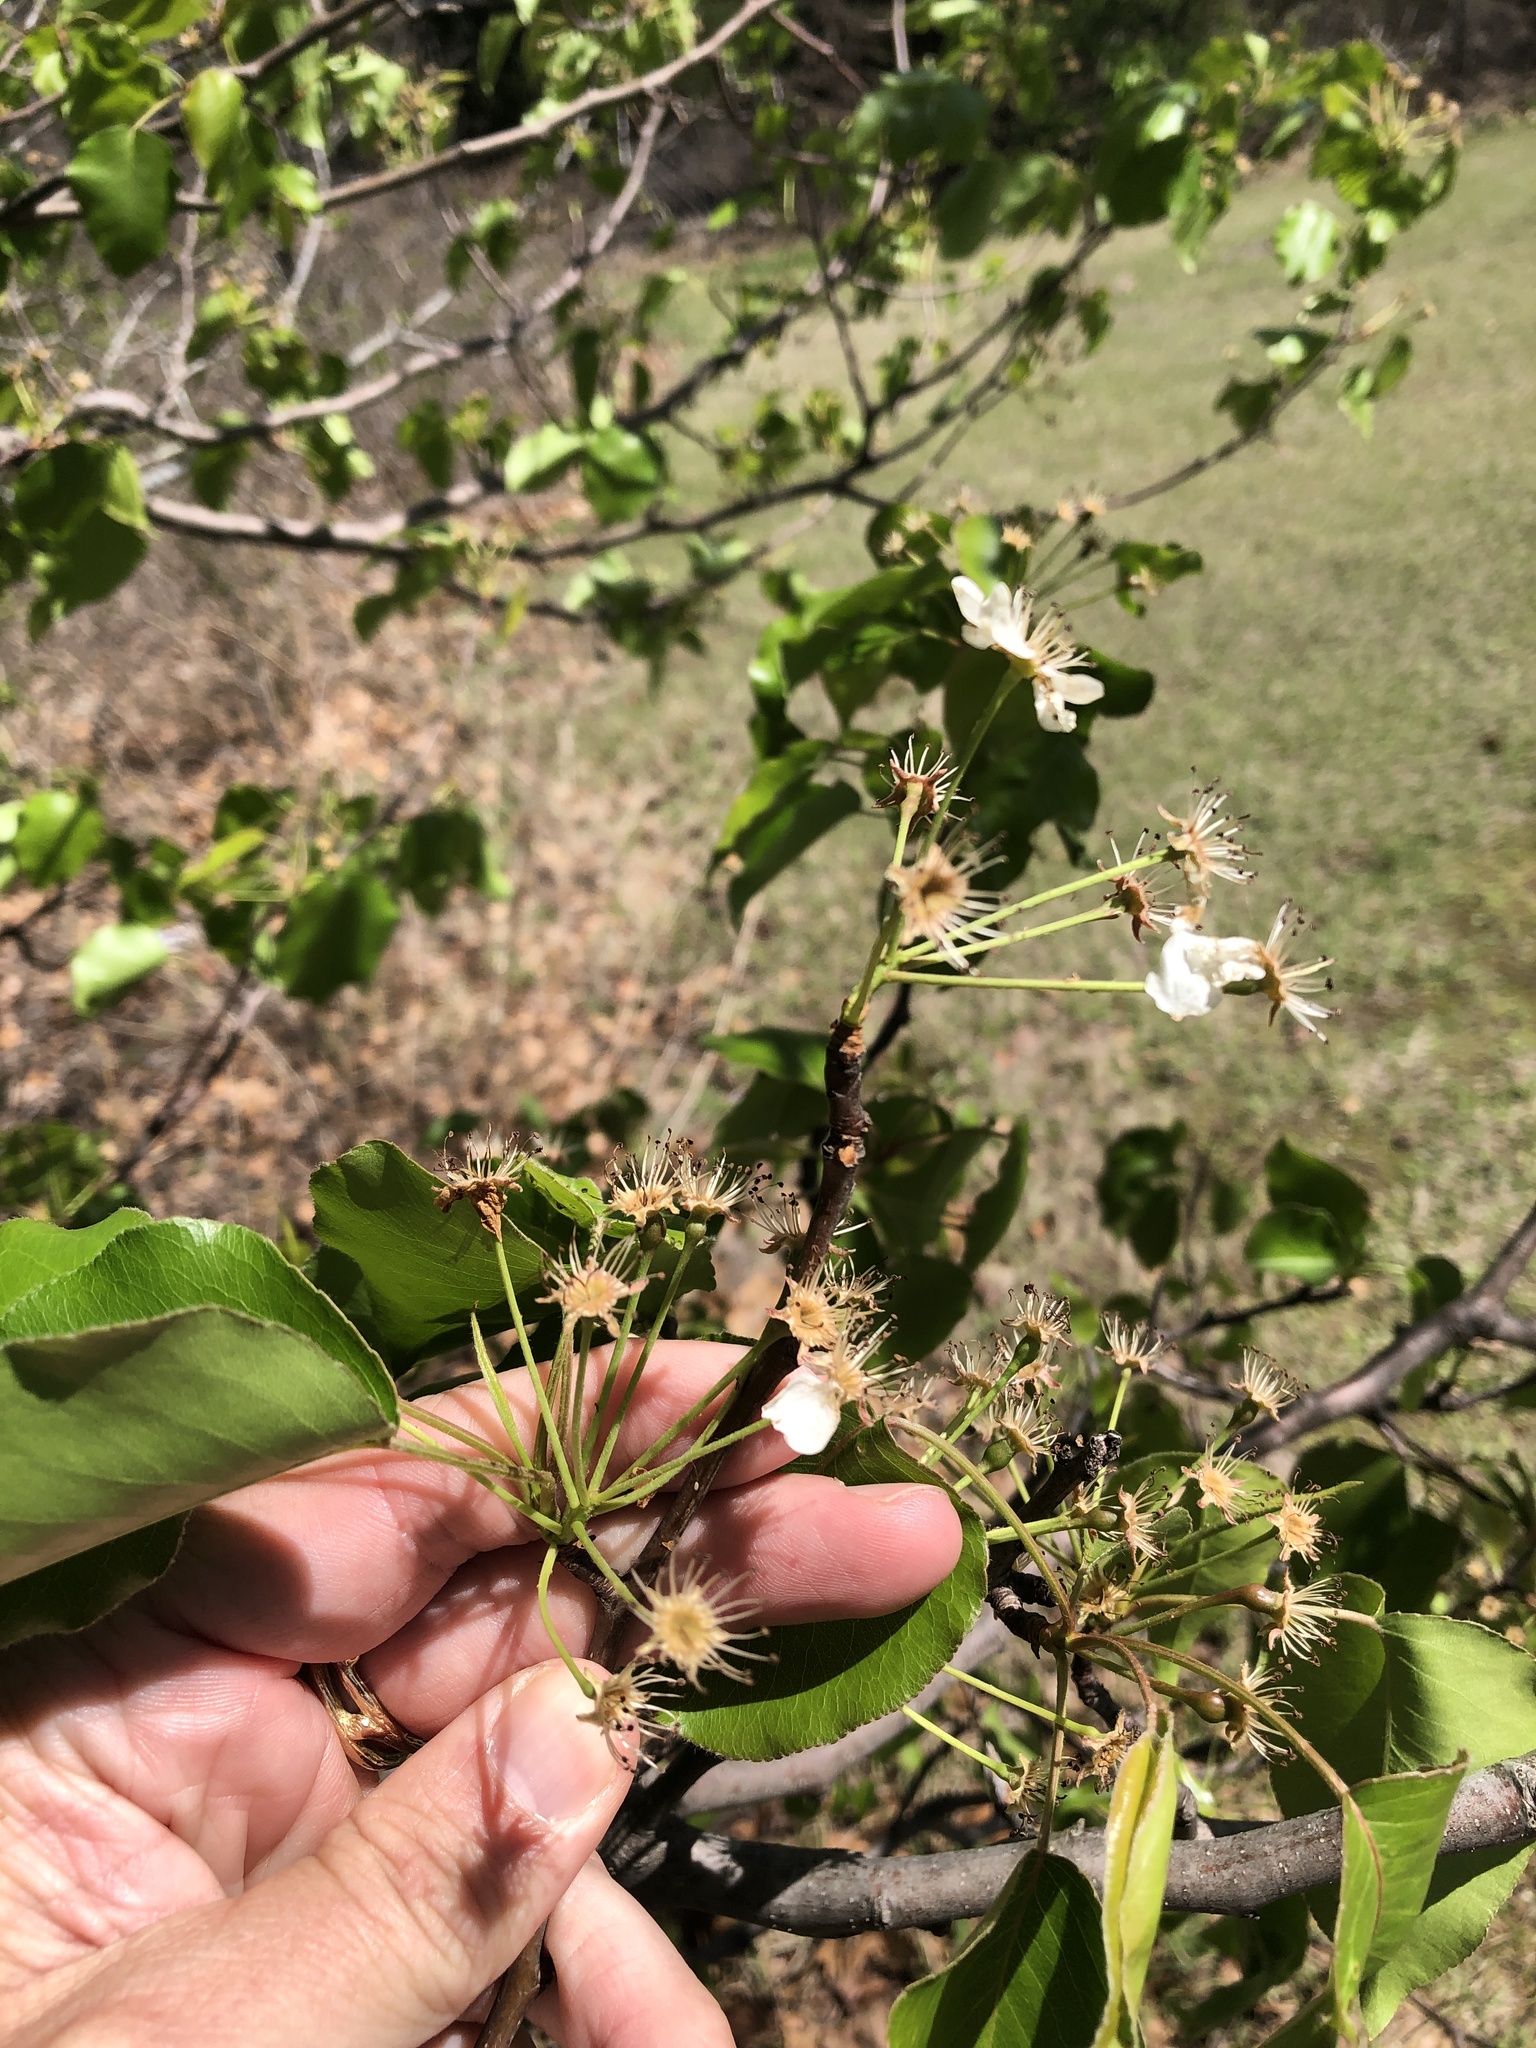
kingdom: Plantae
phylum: Tracheophyta
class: Magnoliopsida
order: Rosales
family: Rosaceae
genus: Pyrus
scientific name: Pyrus calleryana
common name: Callery pear
